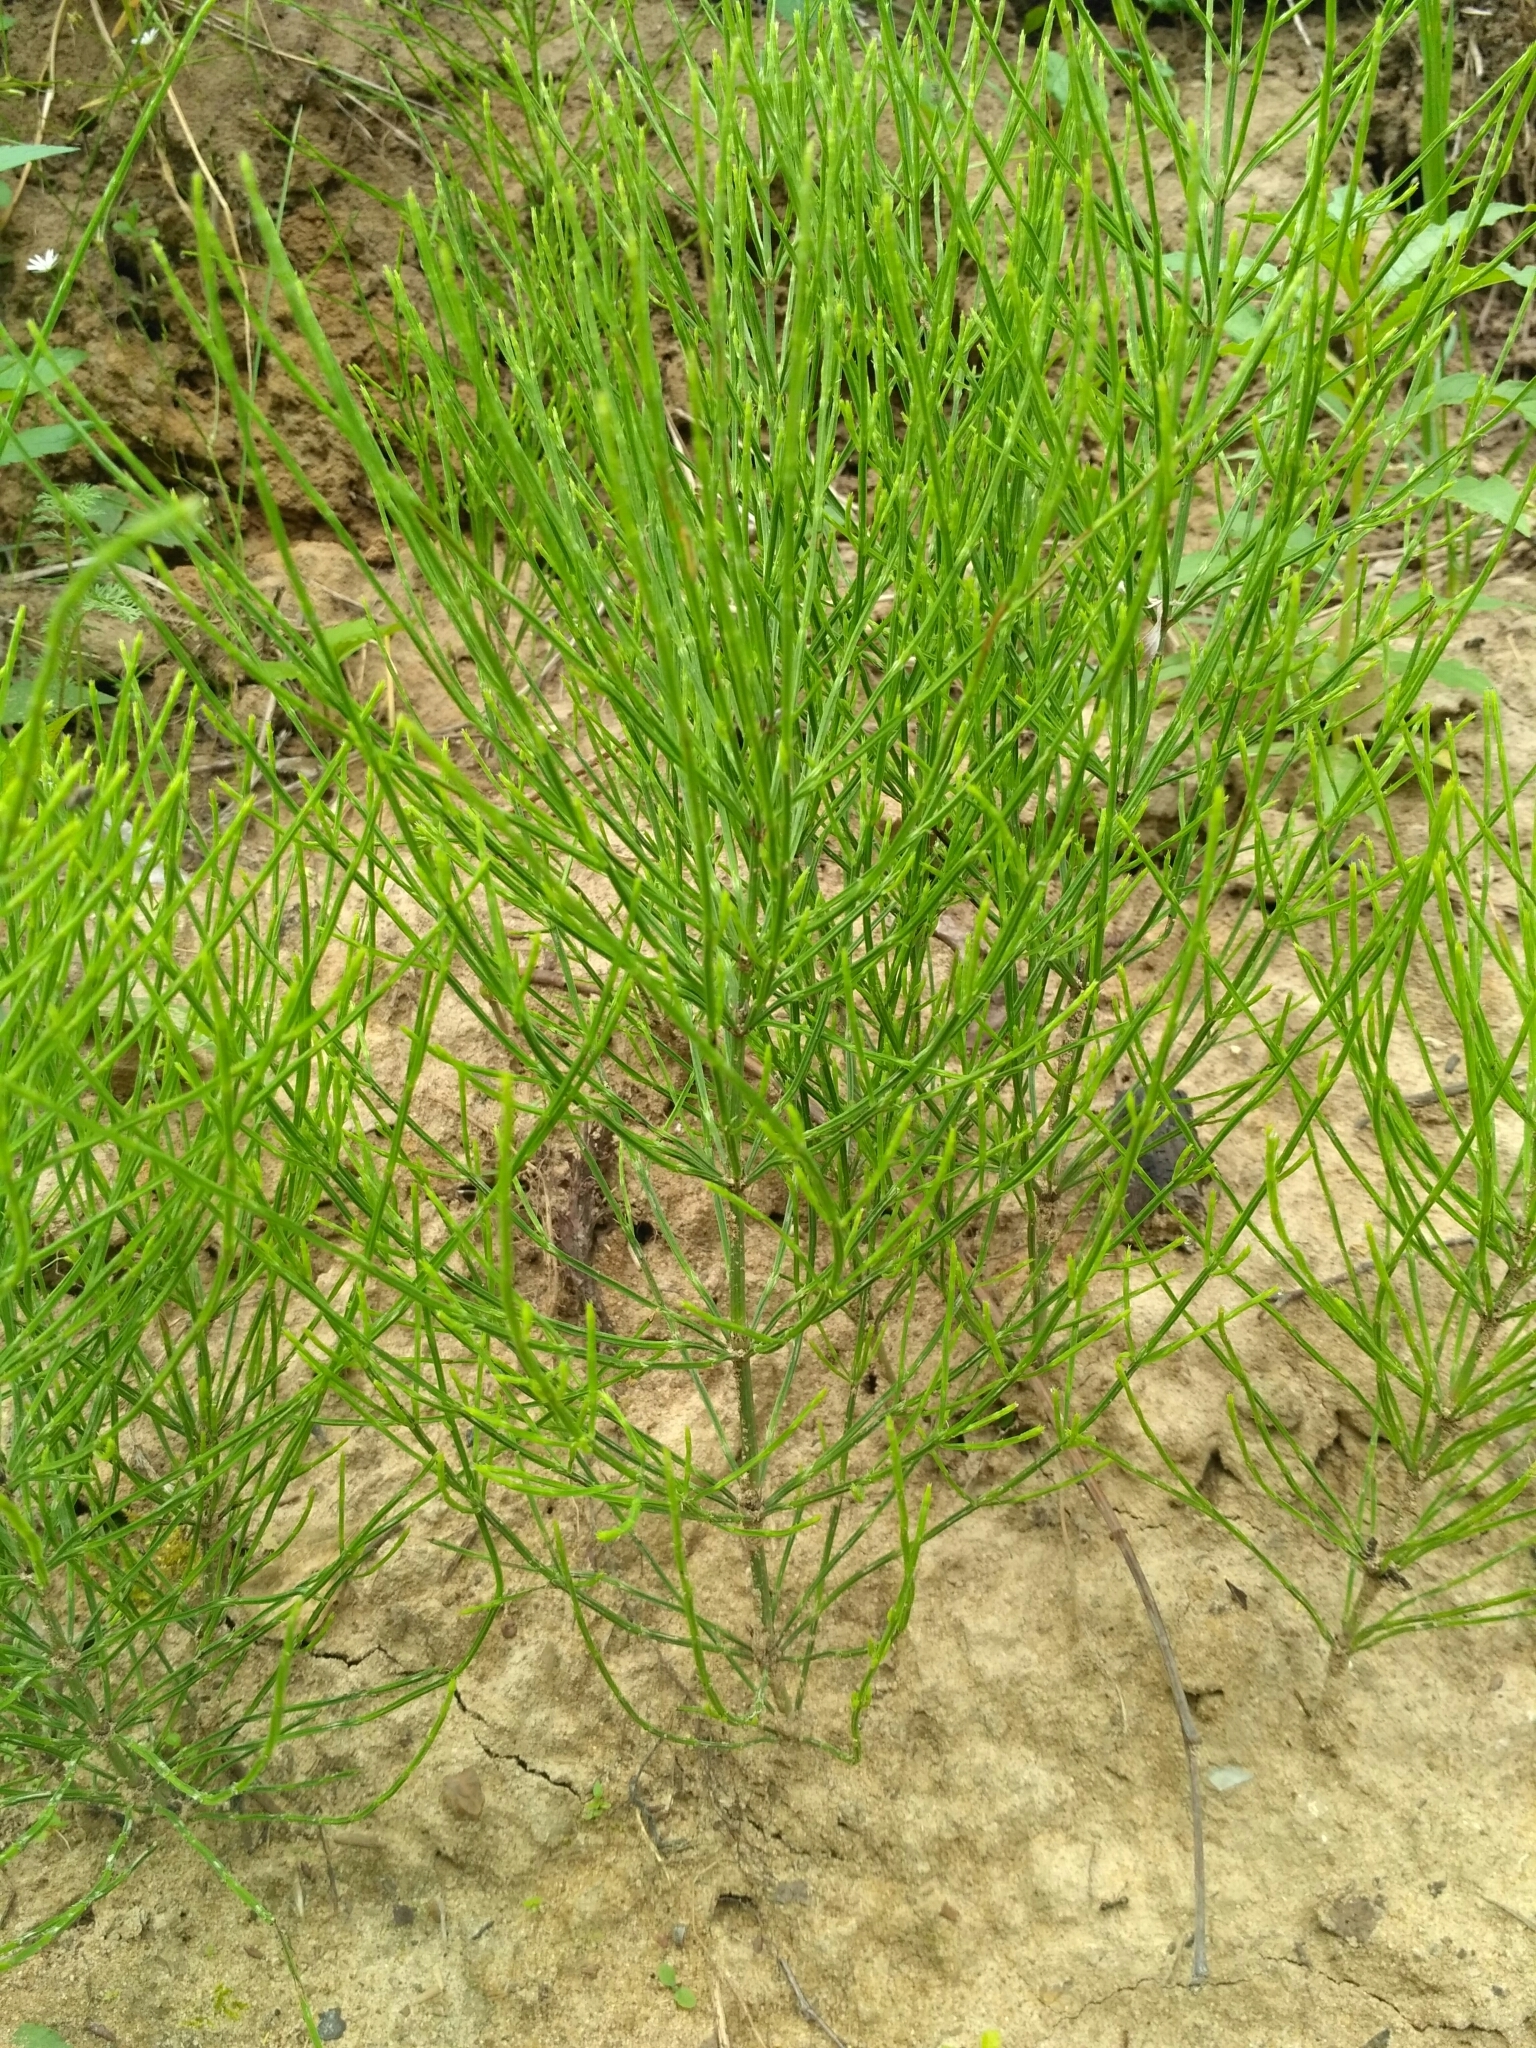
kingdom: Plantae
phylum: Tracheophyta
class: Polypodiopsida
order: Equisetales
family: Equisetaceae
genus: Equisetum
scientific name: Equisetum arvense
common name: Field horsetail
